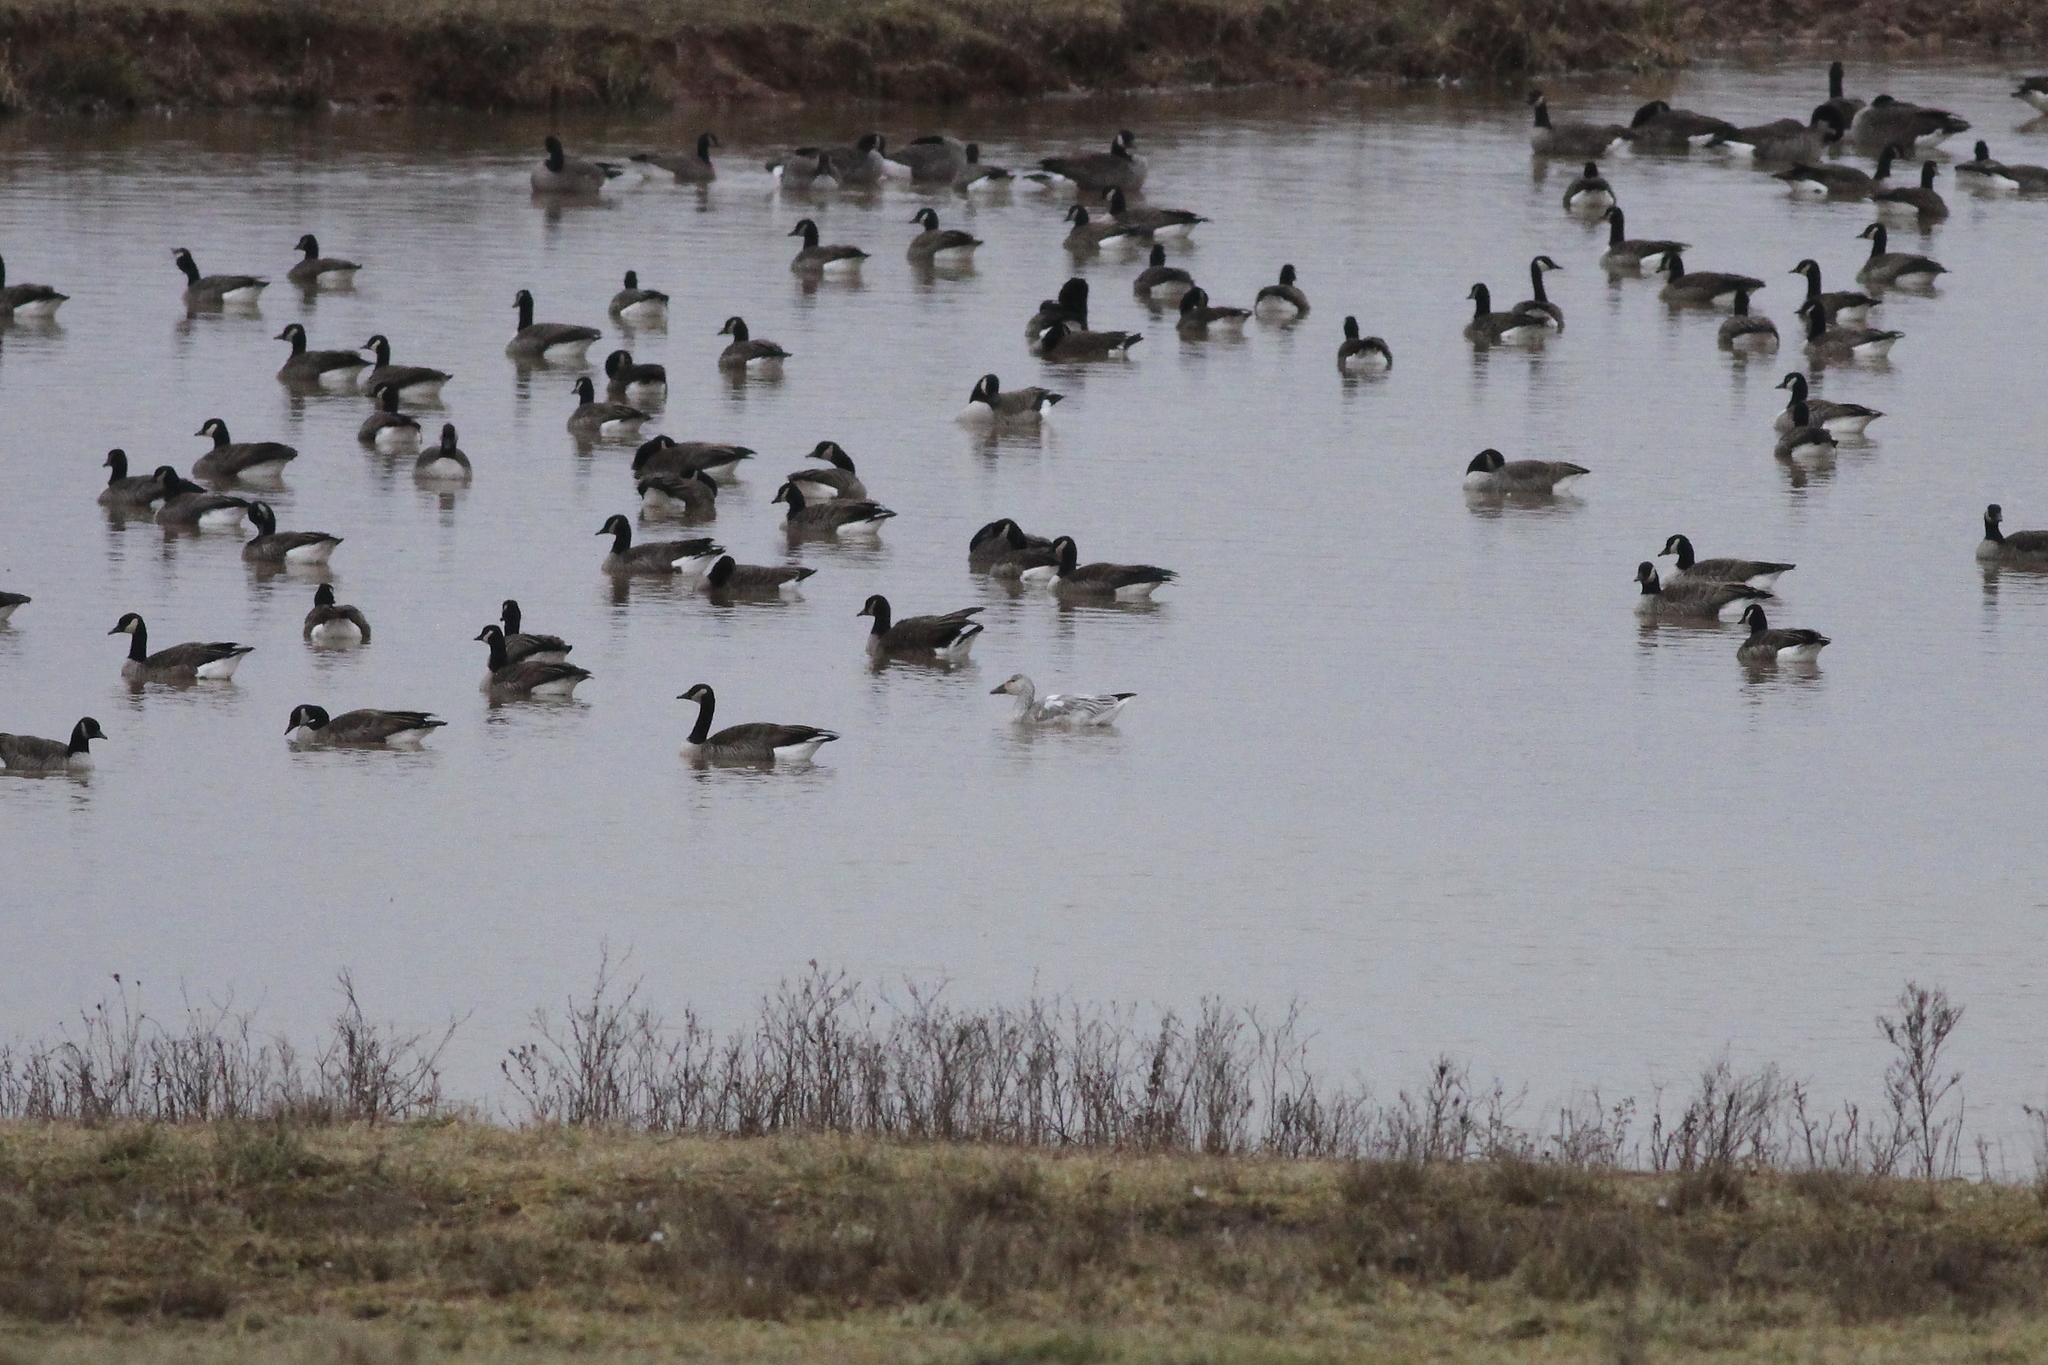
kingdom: Animalia
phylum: Chordata
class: Aves
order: Anseriformes
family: Anatidae
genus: Branta
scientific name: Branta canadensis
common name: Canada goose
